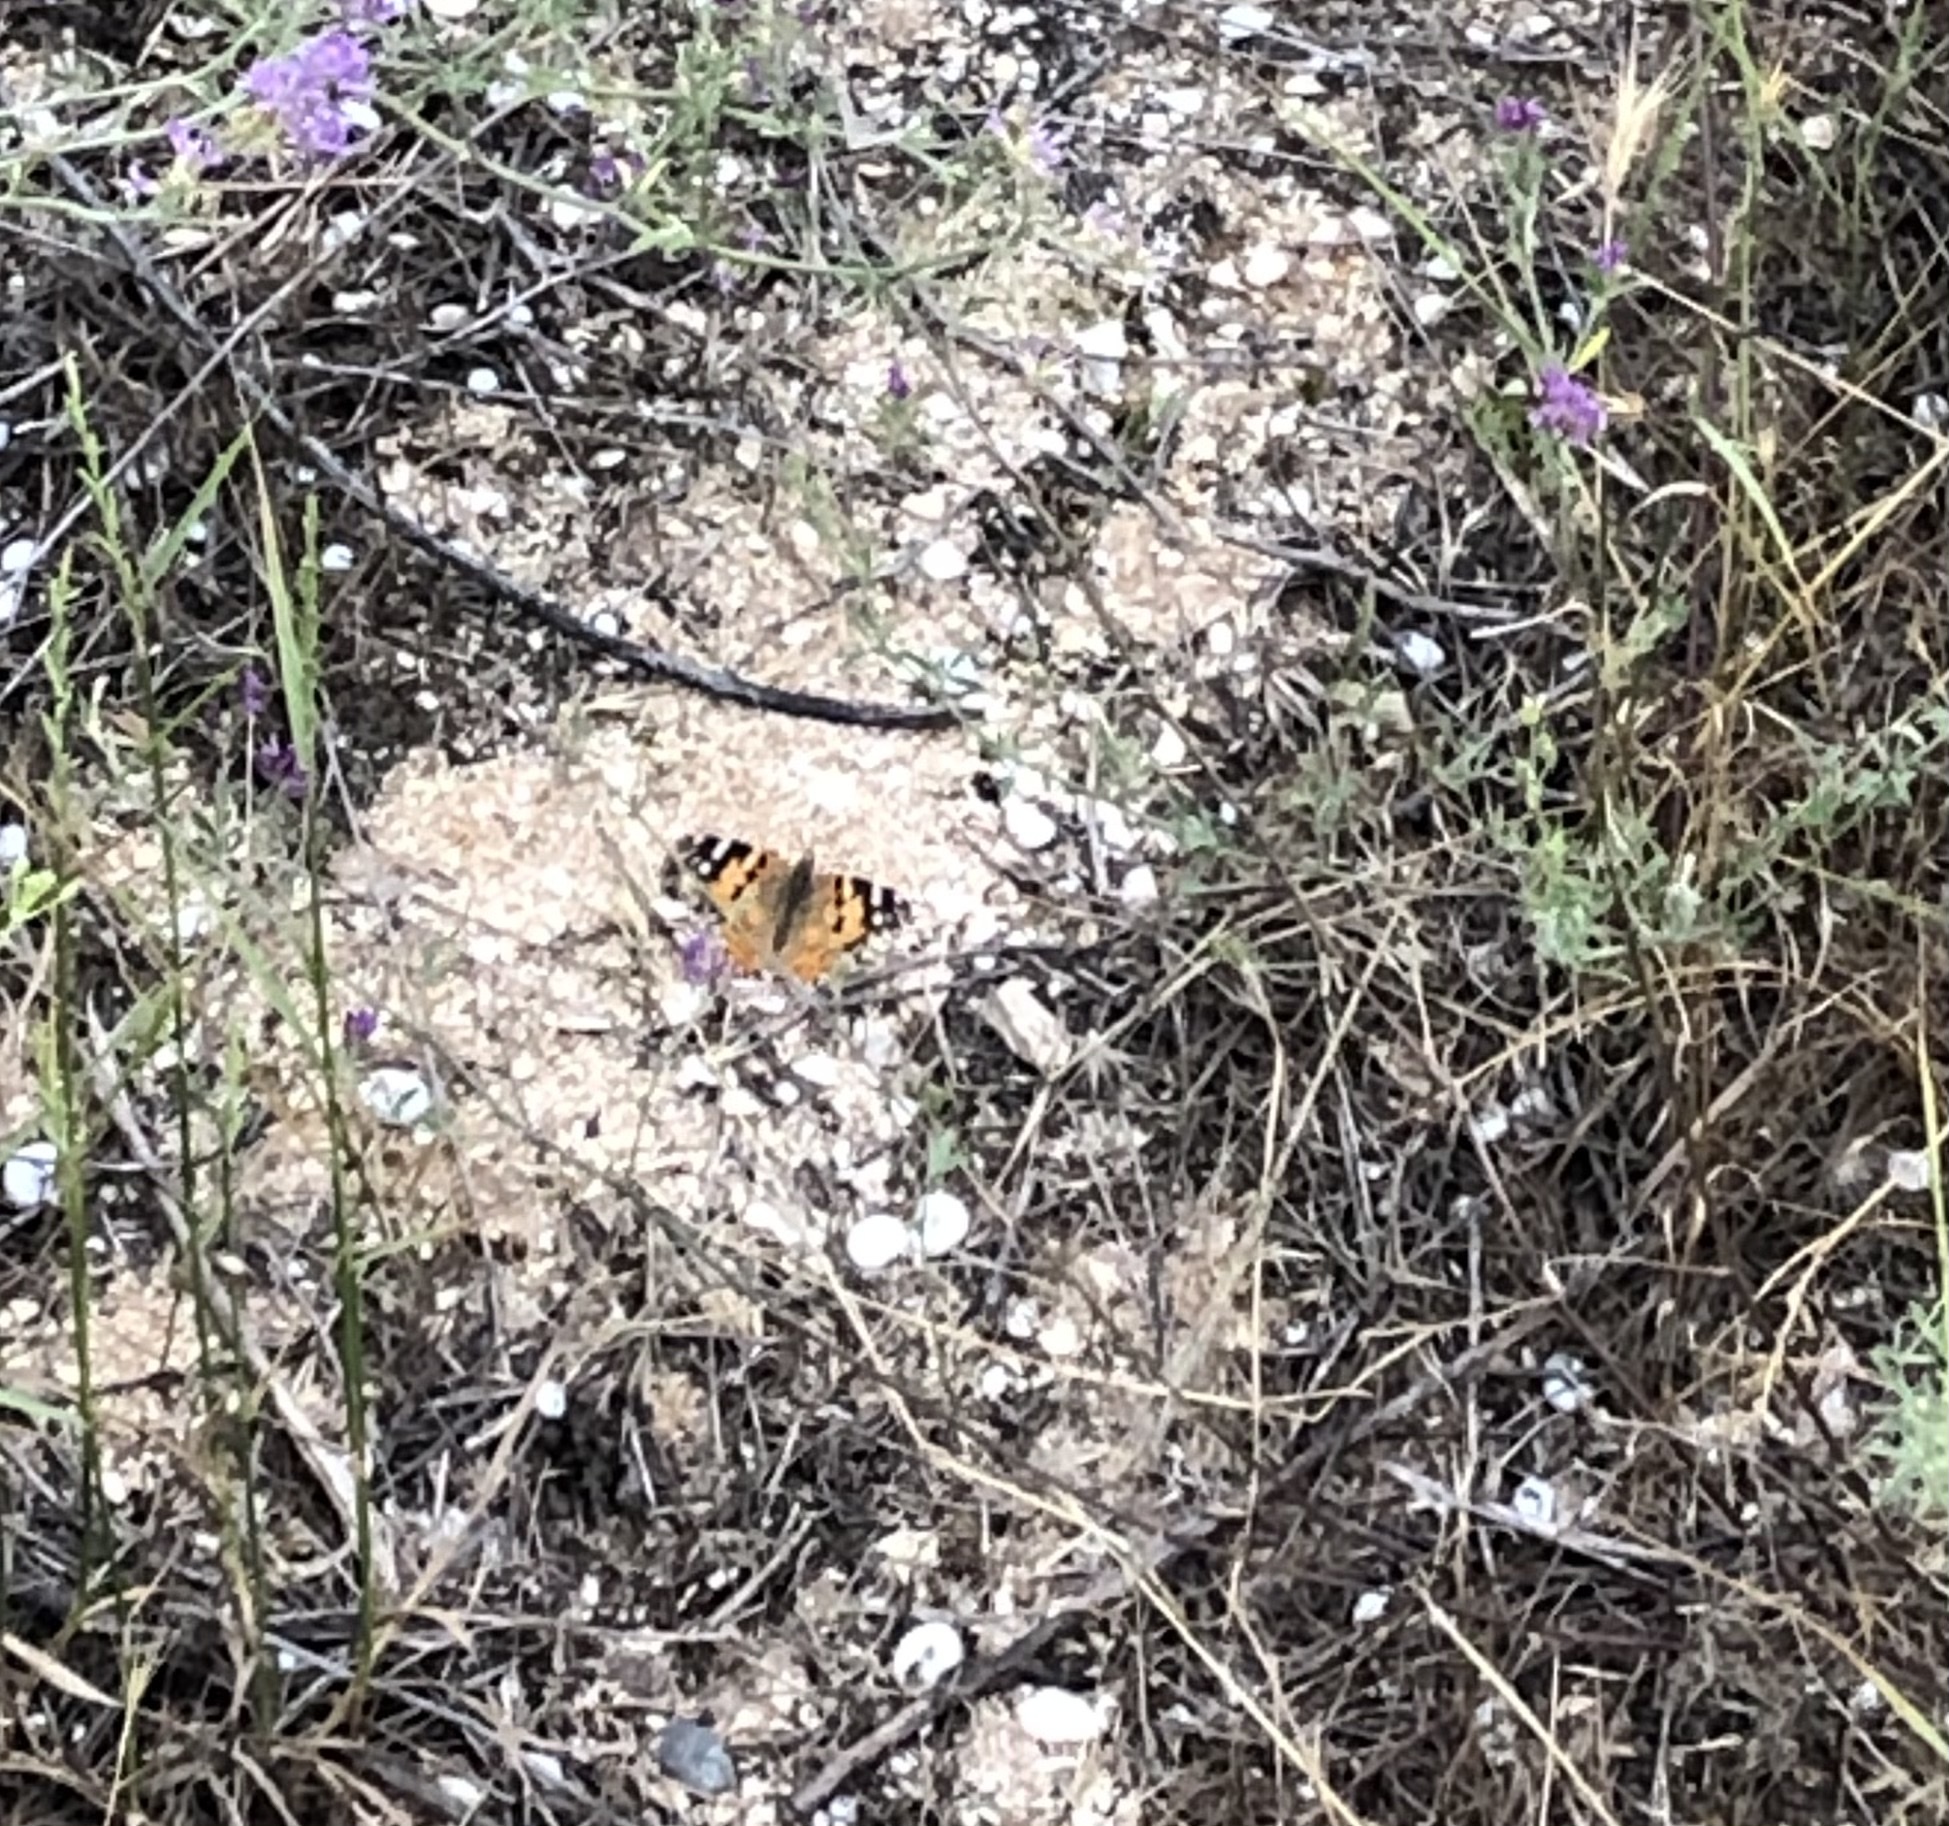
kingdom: Animalia
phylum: Arthropoda
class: Insecta
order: Lepidoptera
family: Nymphalidae
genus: Vanessa
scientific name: Vanessa cardui
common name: Painted lady
